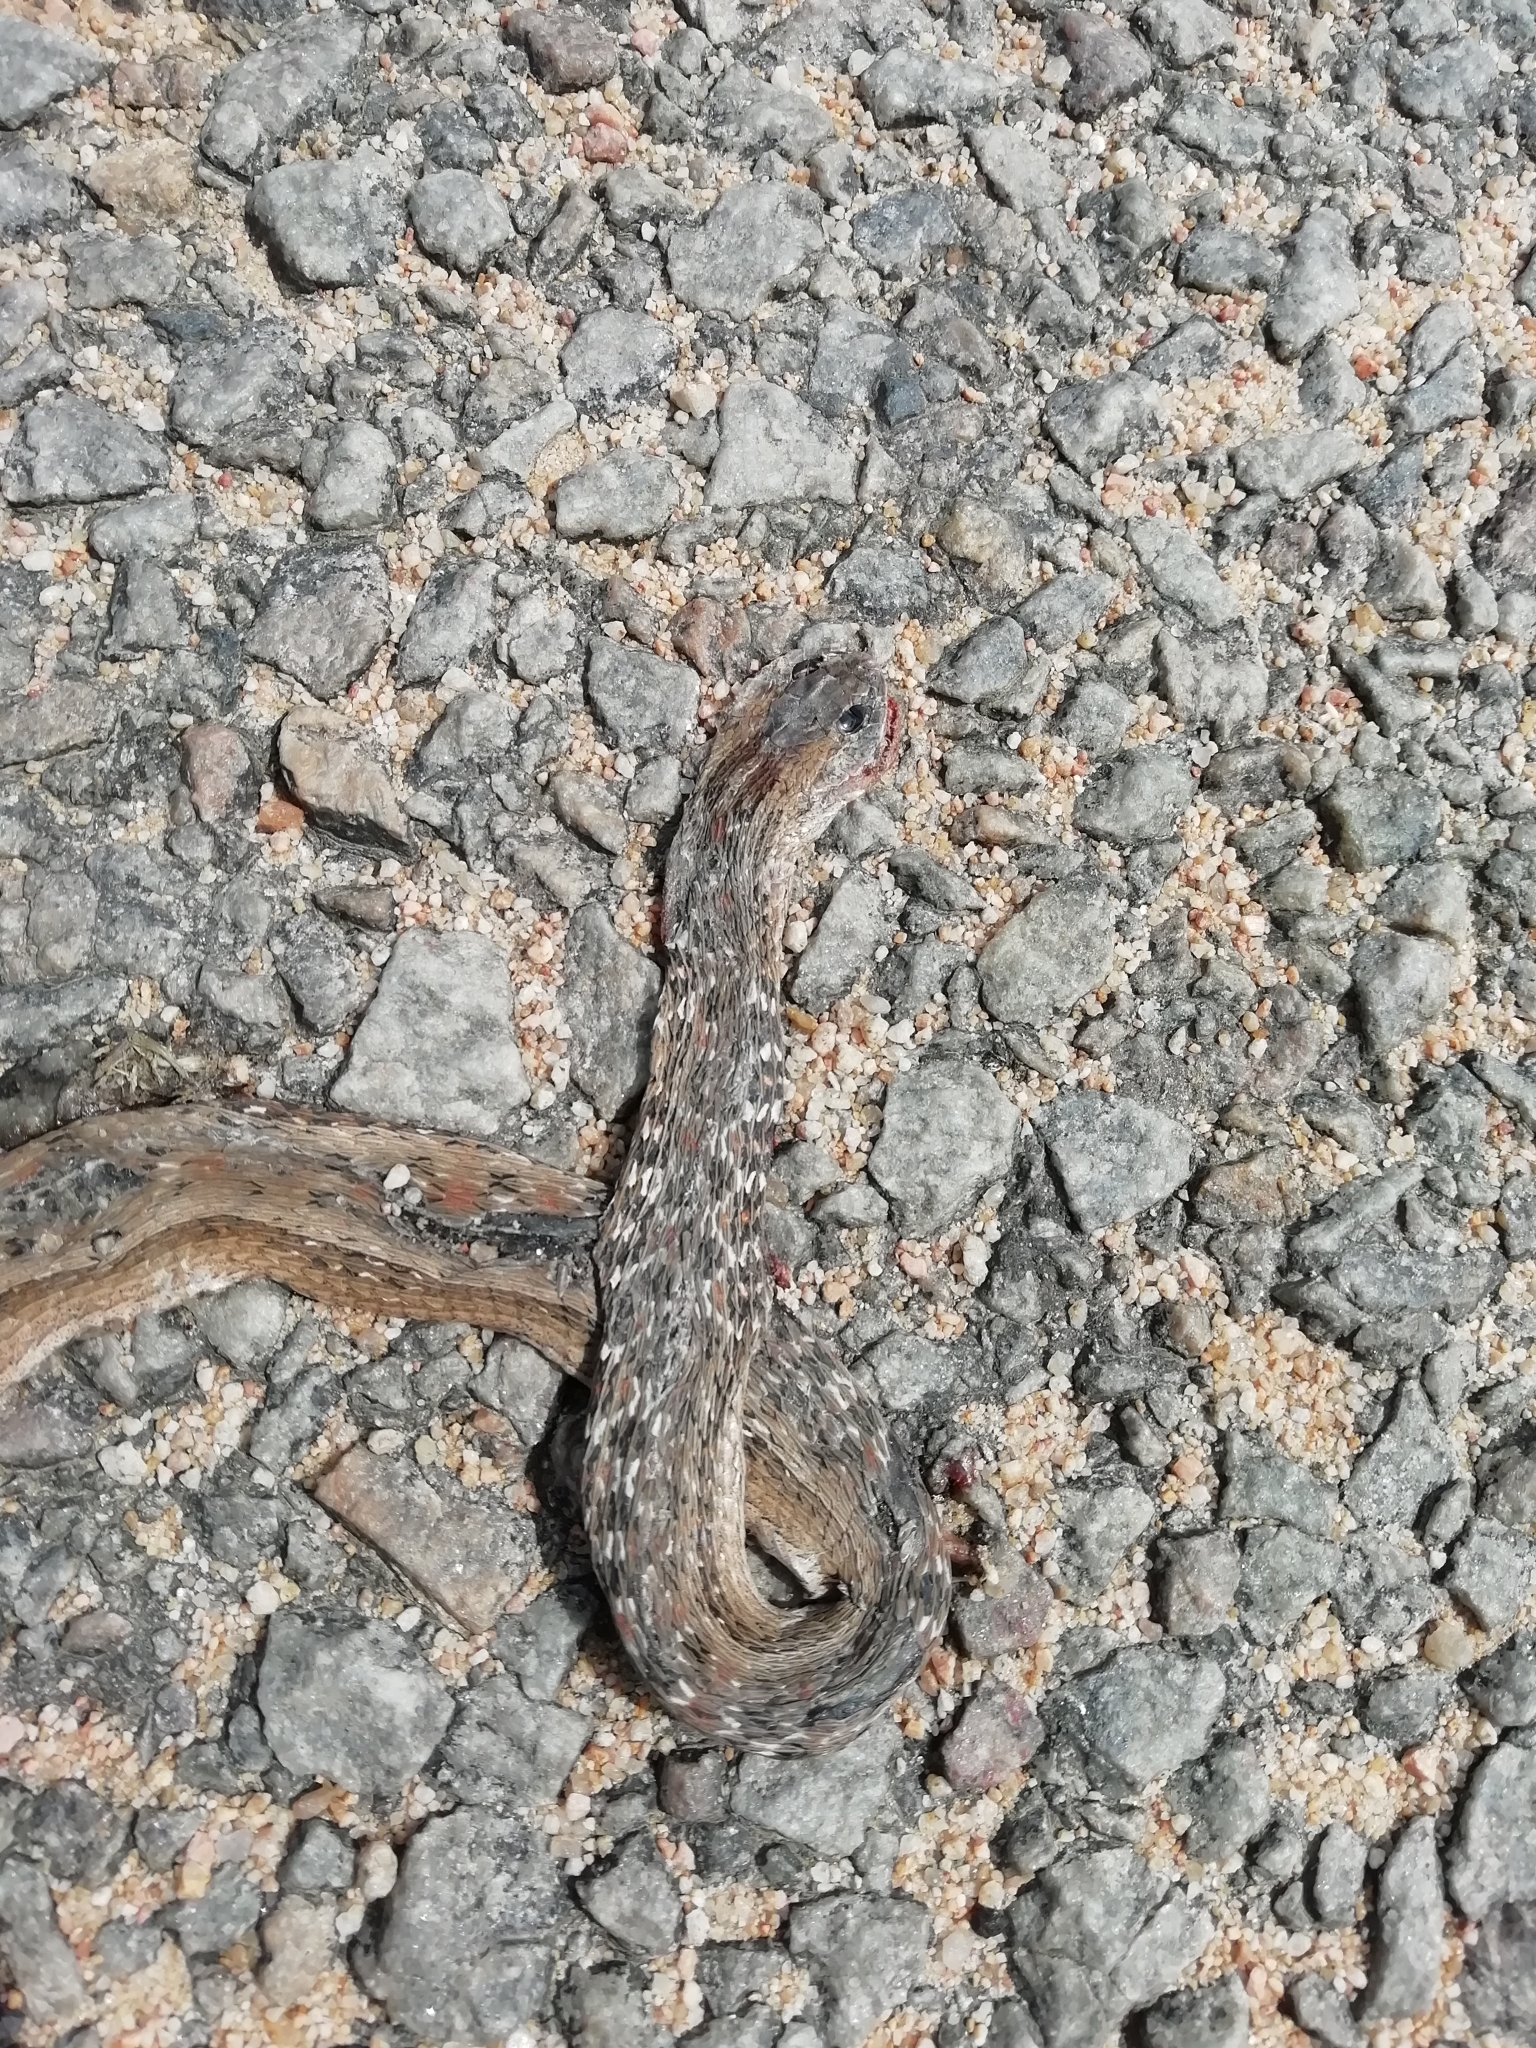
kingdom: Animalia
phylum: Chordata
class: Squamata
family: Colubridae
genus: Dryophylax
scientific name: Dryophylax
